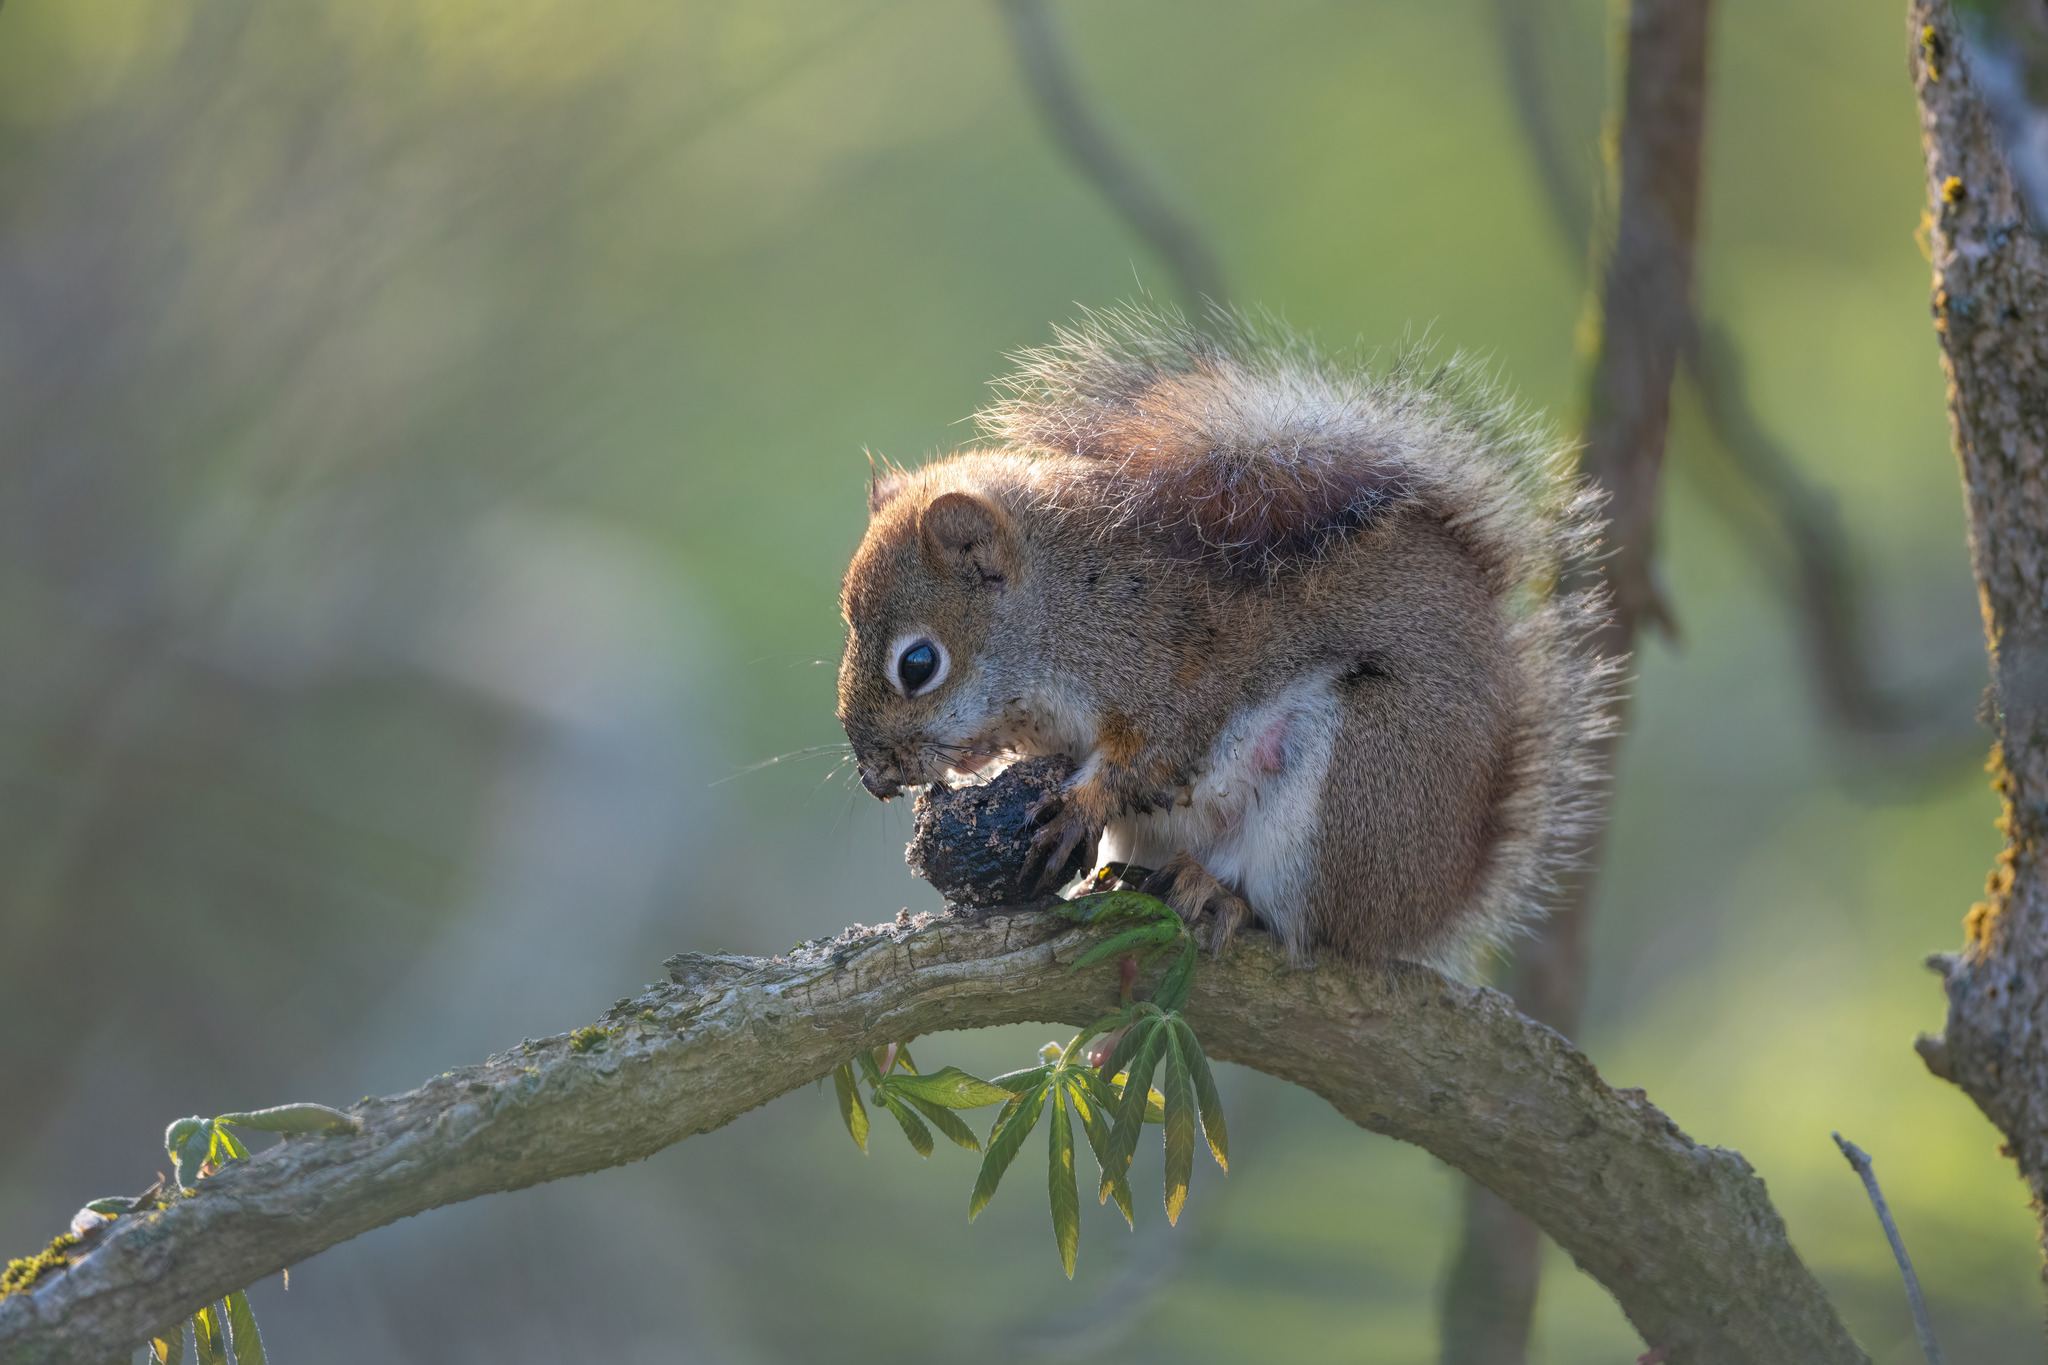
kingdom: Animalia
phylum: Chordata
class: Mammalia
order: Rodentia
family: Sciuridae
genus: Tamiasciurus
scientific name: Tamiasciurus hudsonicus
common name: Red squirrel
